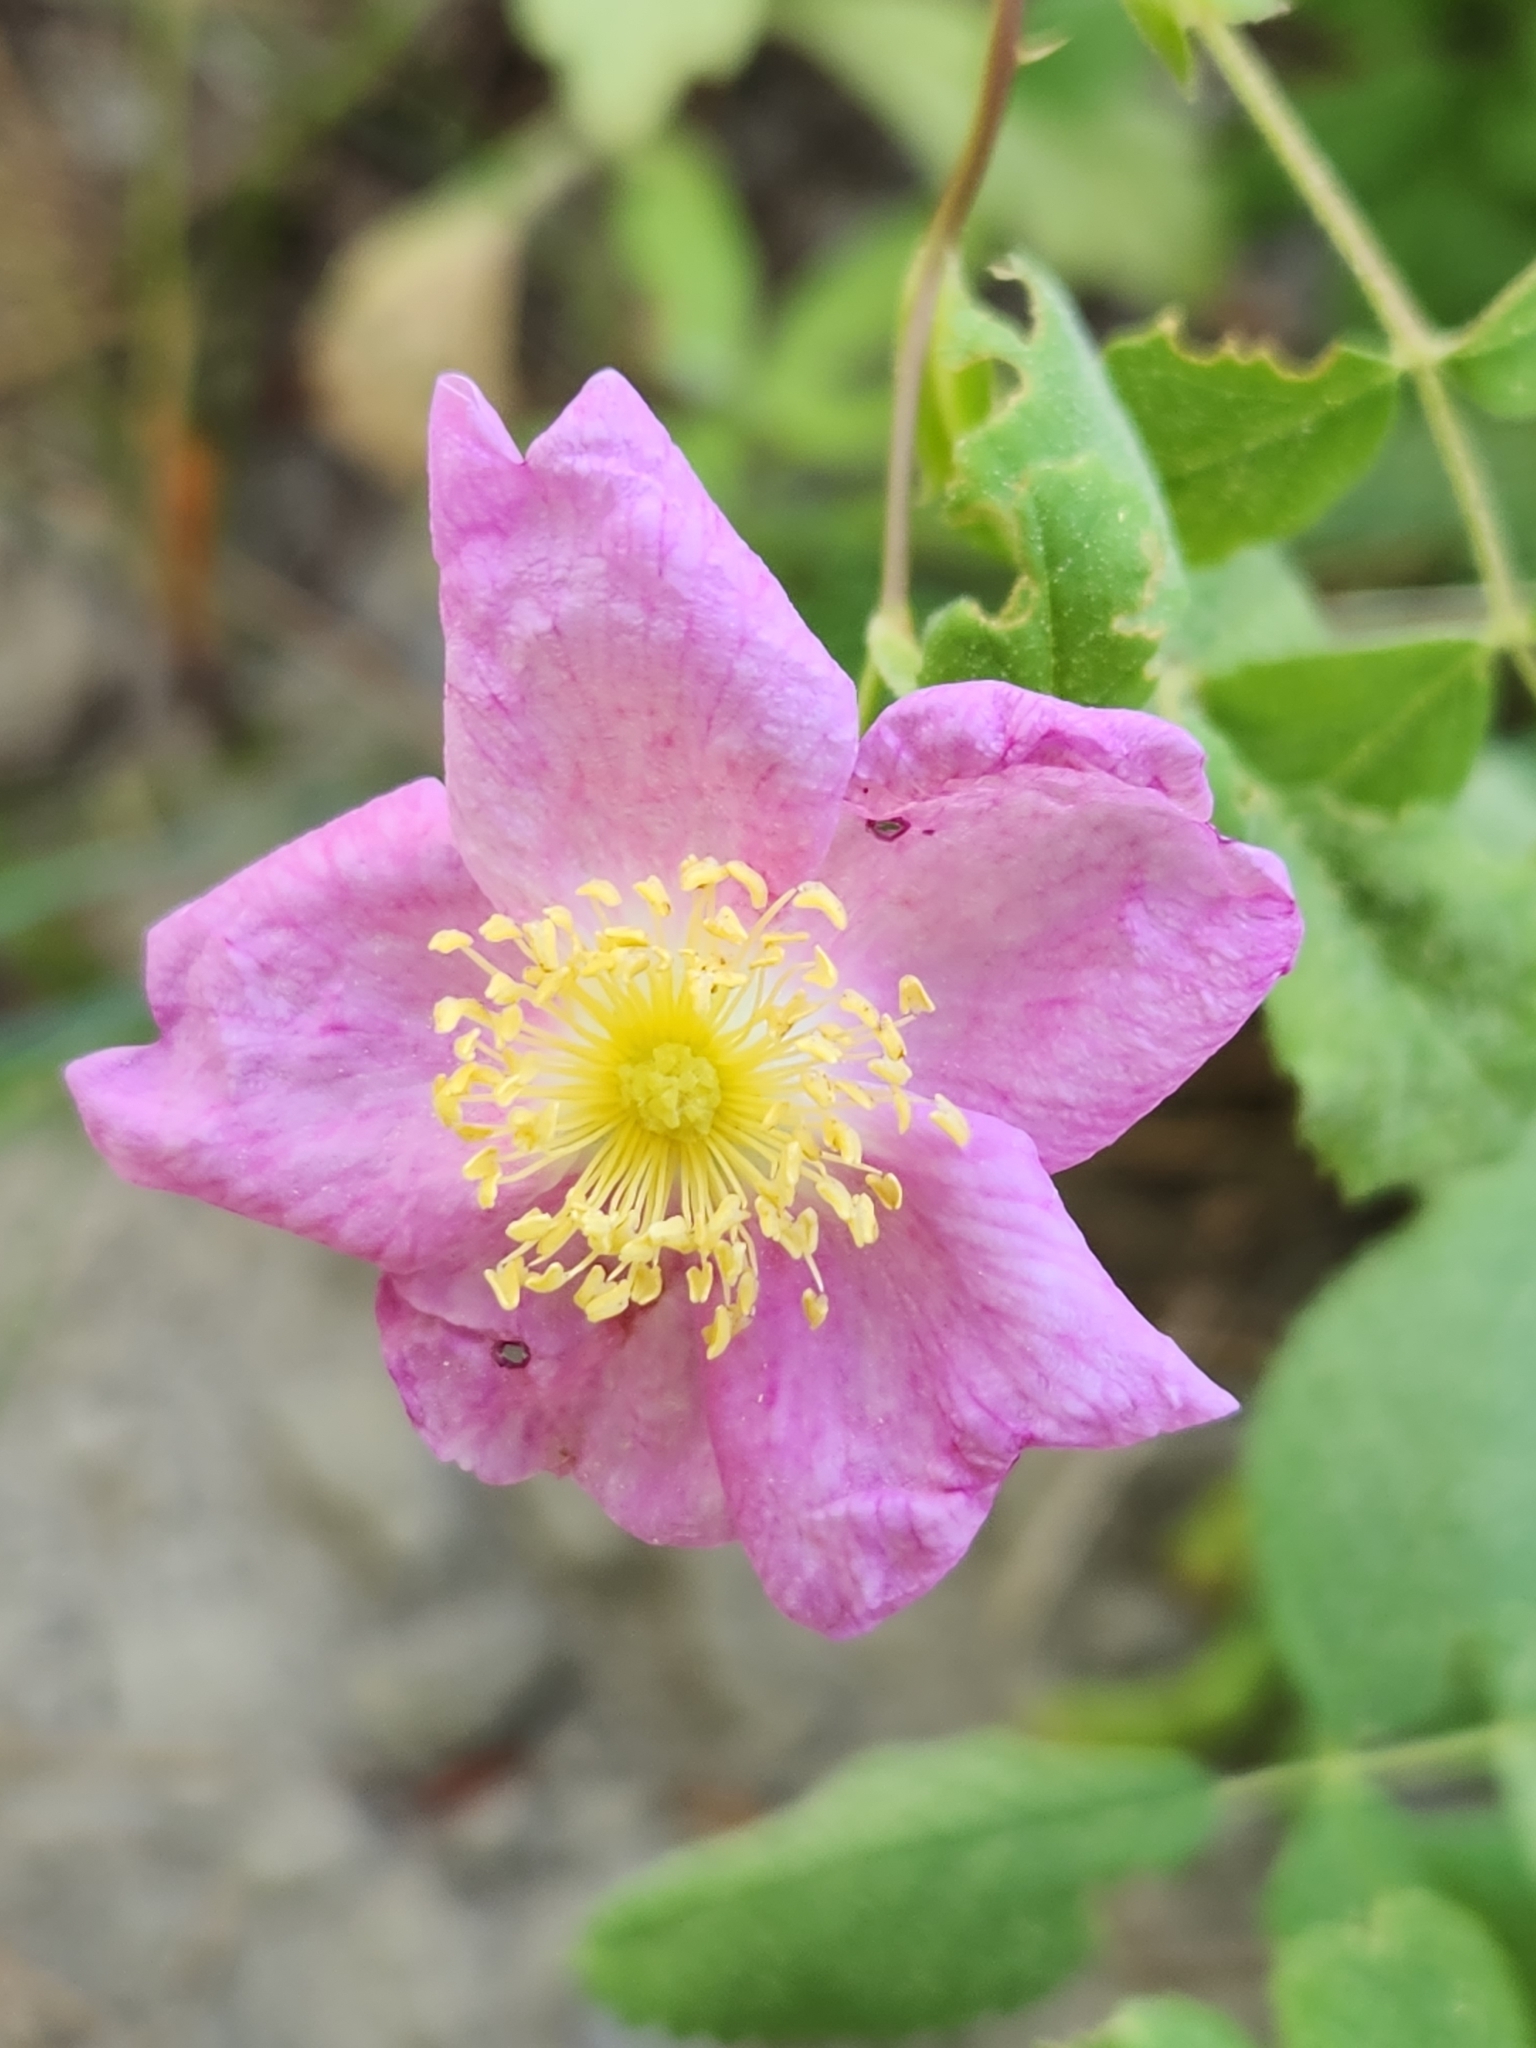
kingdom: Plantae
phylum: Tracheophyta
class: Magnoliopsida
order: Rosales
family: Rosaceae
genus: Rosa
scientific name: Rosa californica
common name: California rose
